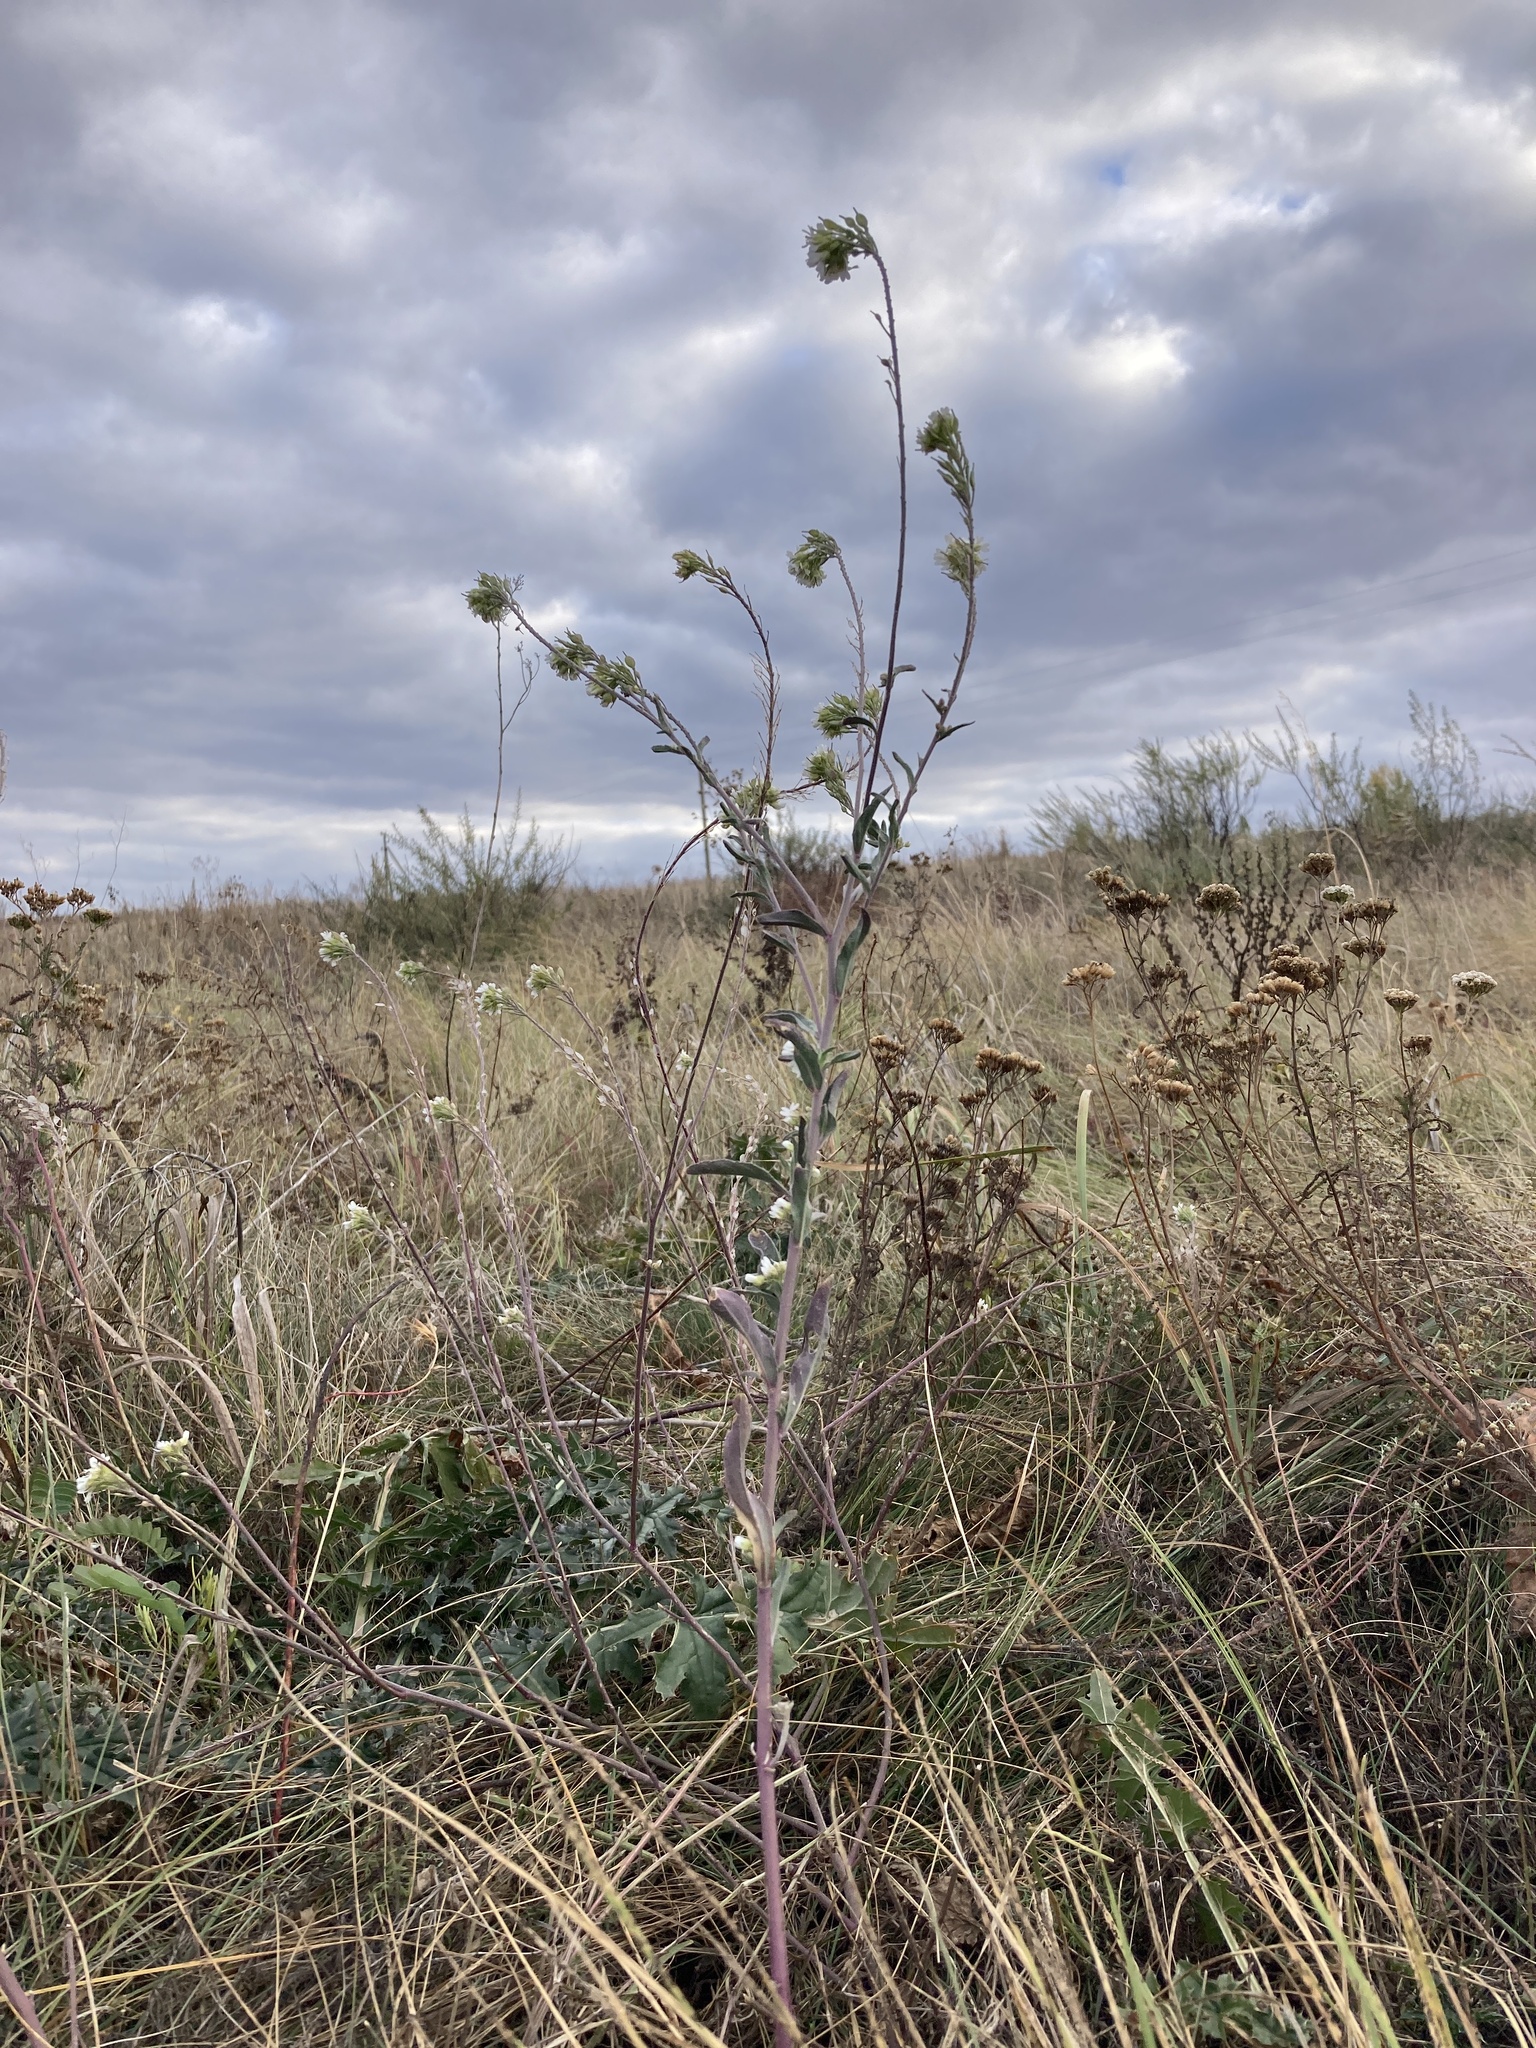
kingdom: Plantae
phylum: Tracheophyta
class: Magnoliopsida
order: Brassicales
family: Brassicaceae
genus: Berteroa
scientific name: Berteroa incana
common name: Hoary alison
